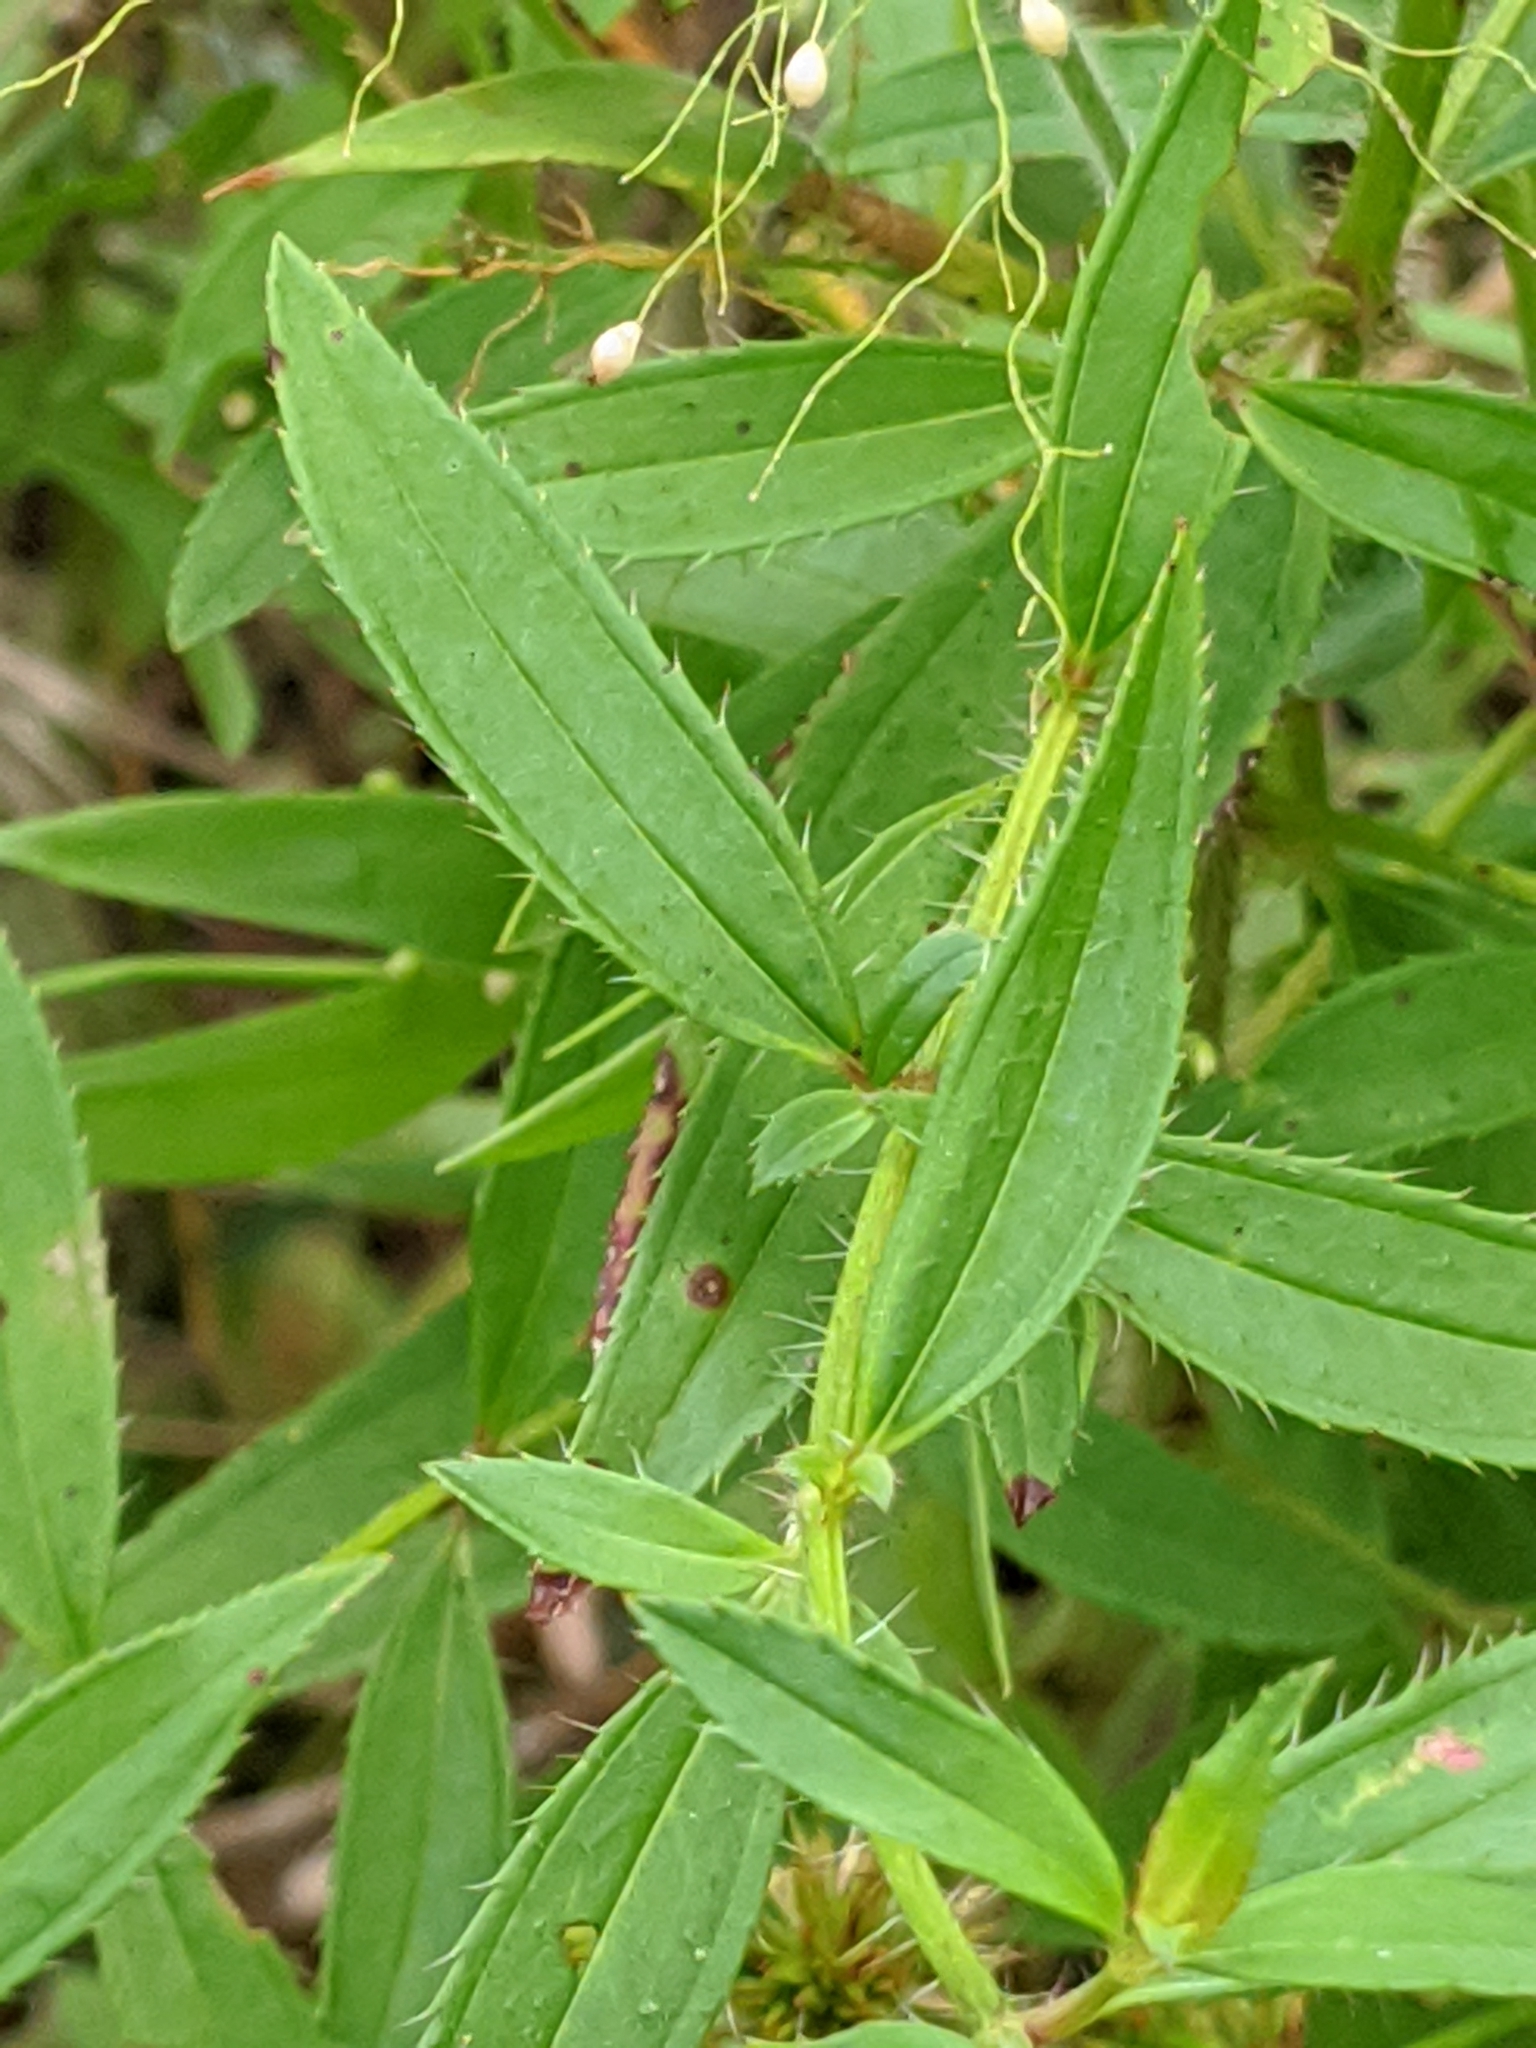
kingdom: Plantae
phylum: Tracheophyta
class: Magnoliopsida
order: Myrtales
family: Melastomataceae
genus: Rhexia
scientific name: Rhexia mariana
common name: Dull meadow-pitcher
